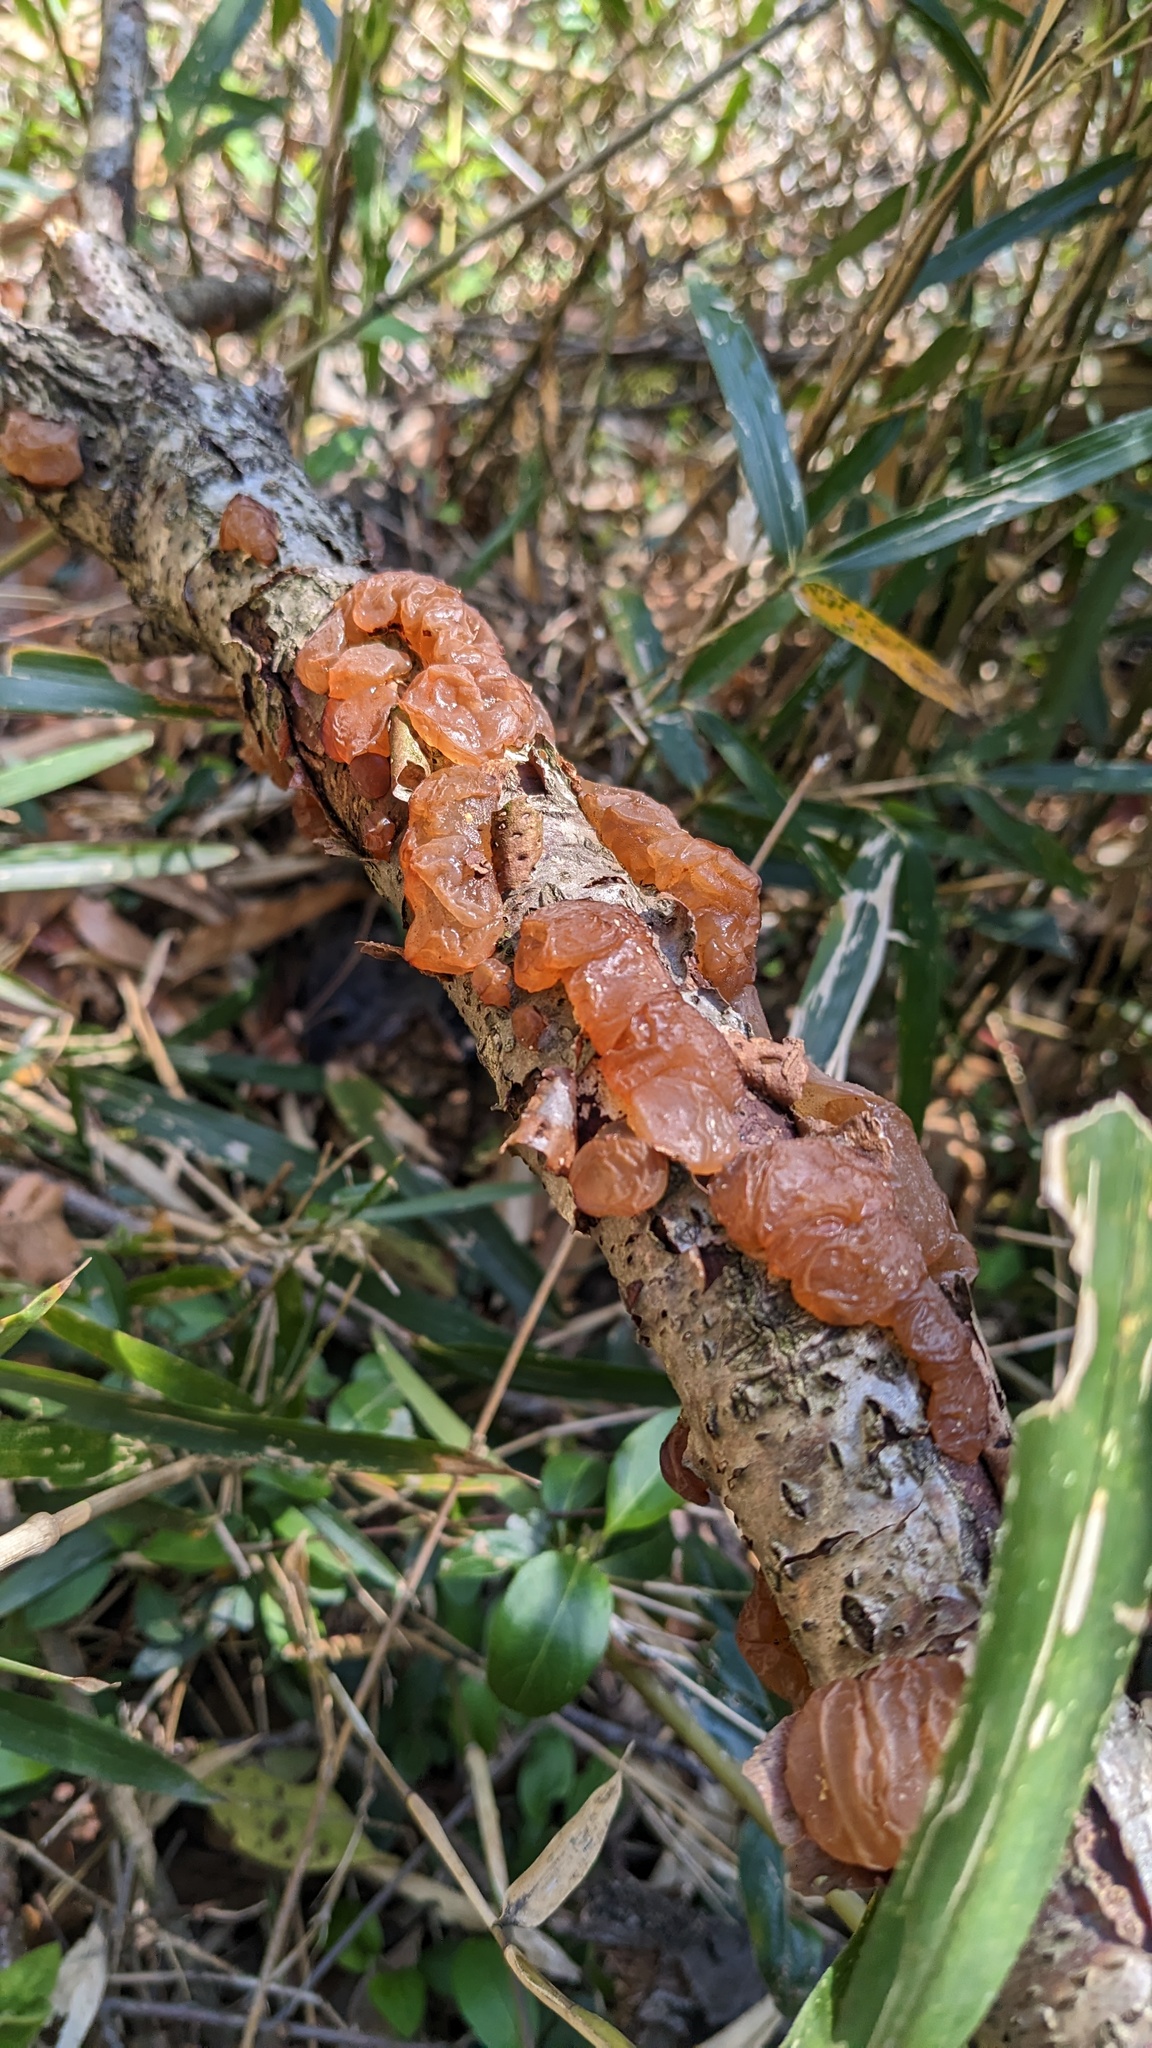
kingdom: Fungi
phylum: Basidiomycota
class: Agaricomycetes
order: Auriculariales
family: Auriculariaceae
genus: Exidia
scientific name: Exidia uvapassa
